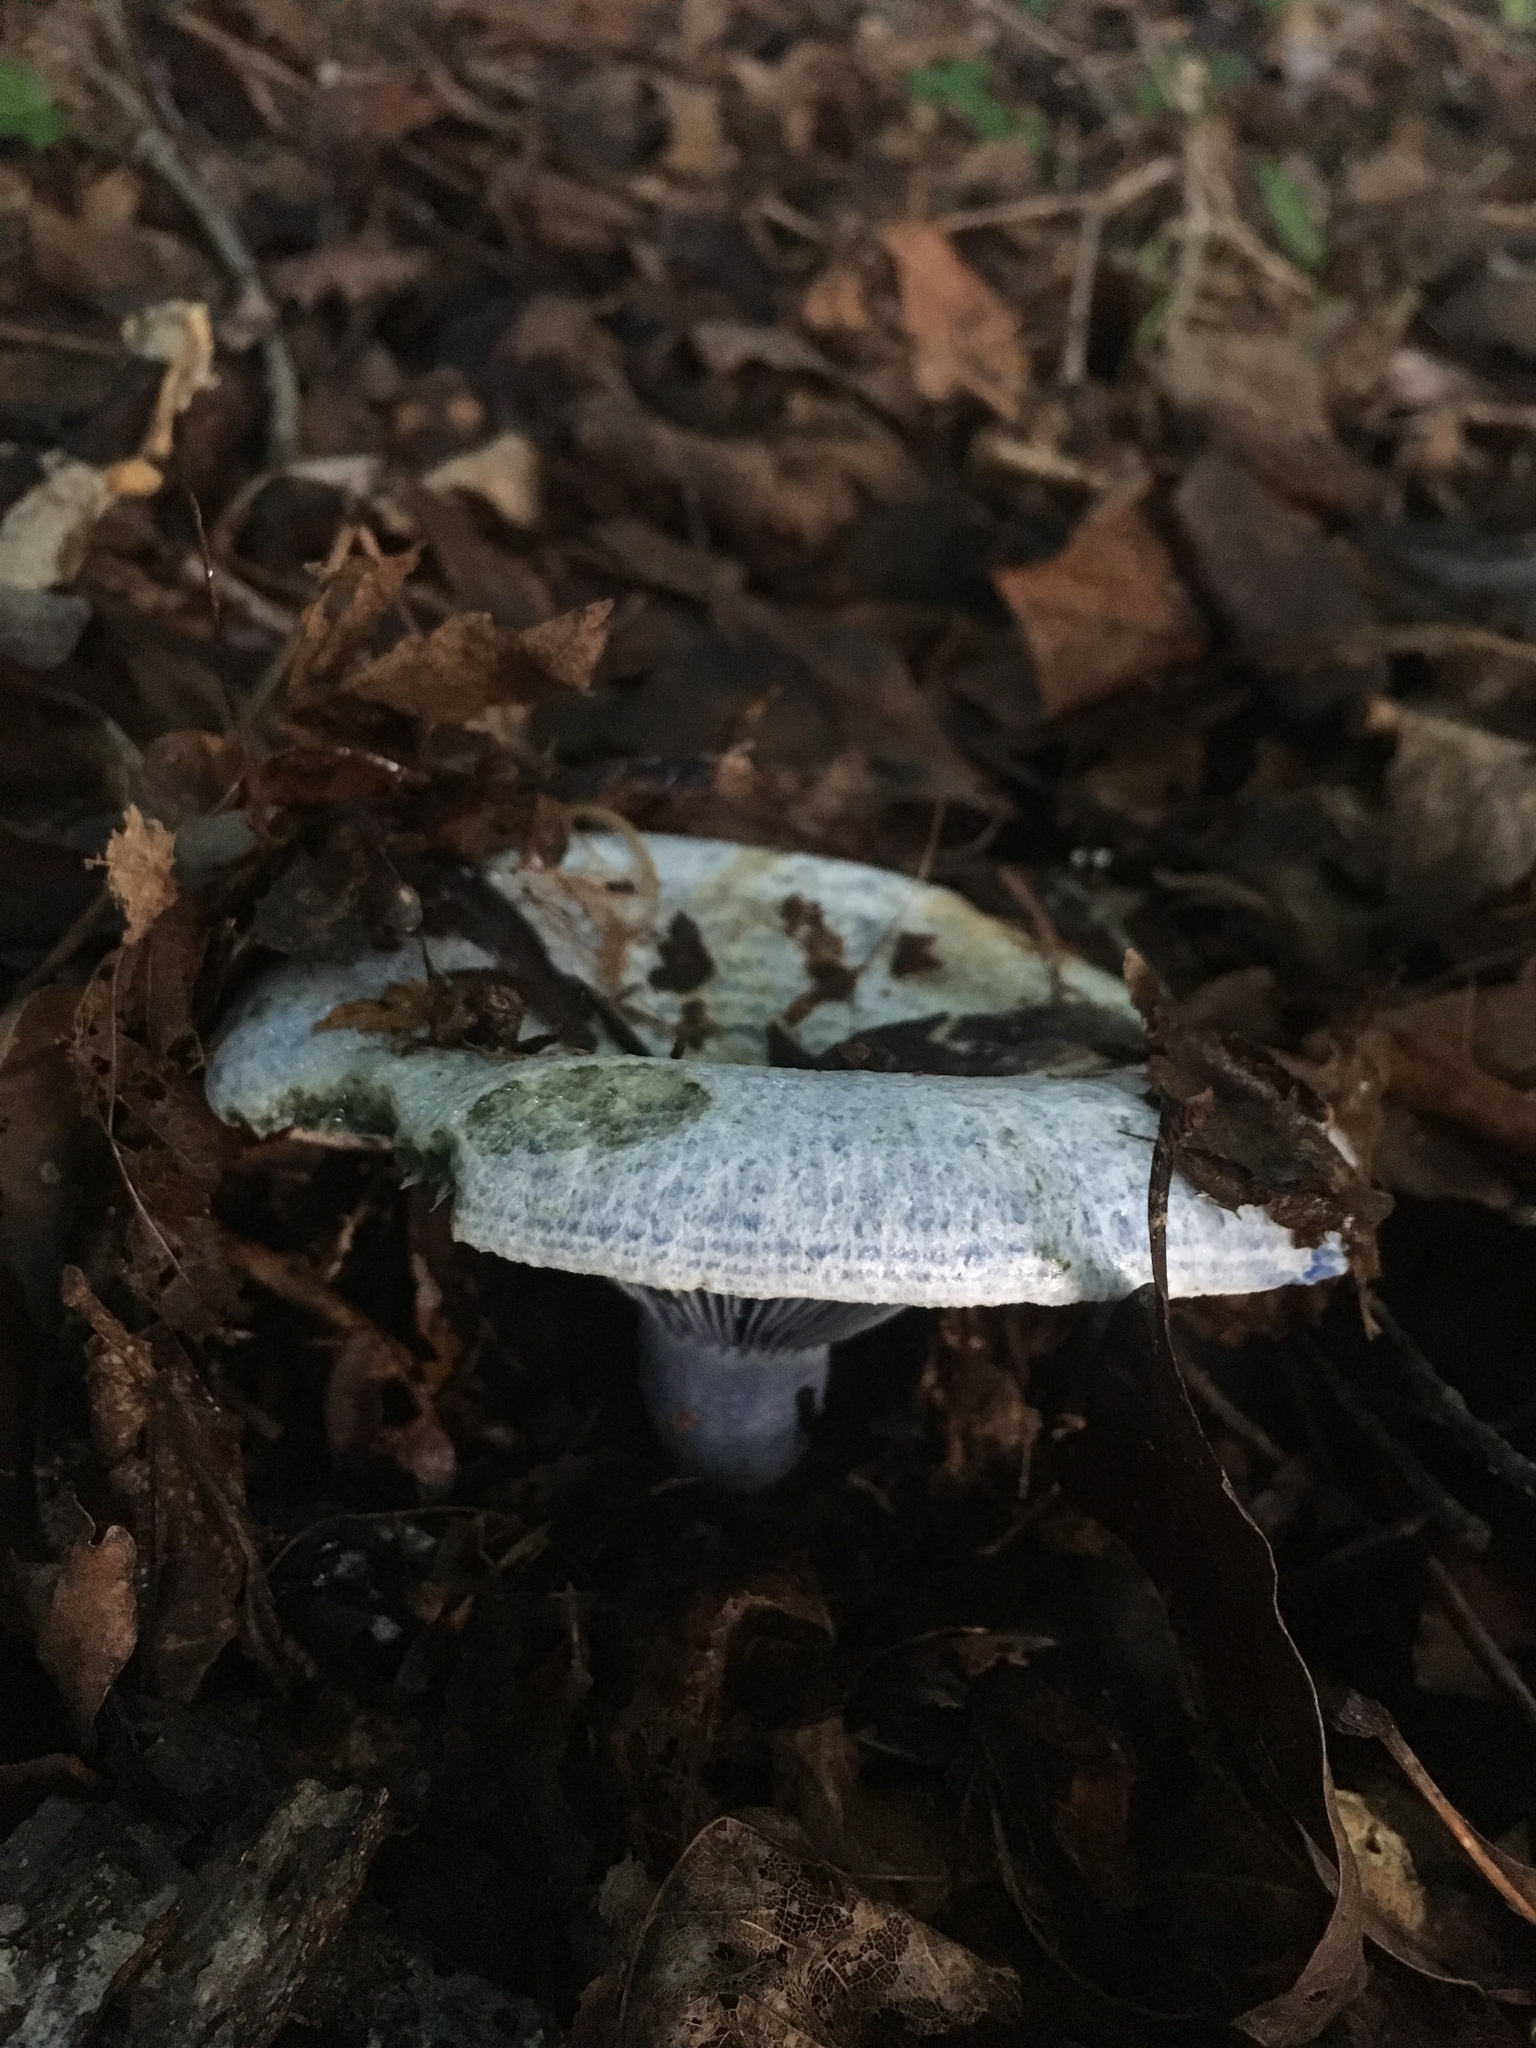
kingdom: Fungi
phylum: Basidiomycota
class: Agaricomycetes
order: Russulales
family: Russulaceae
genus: Lactarius
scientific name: Lactarius indigo
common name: Indigo milk cap
